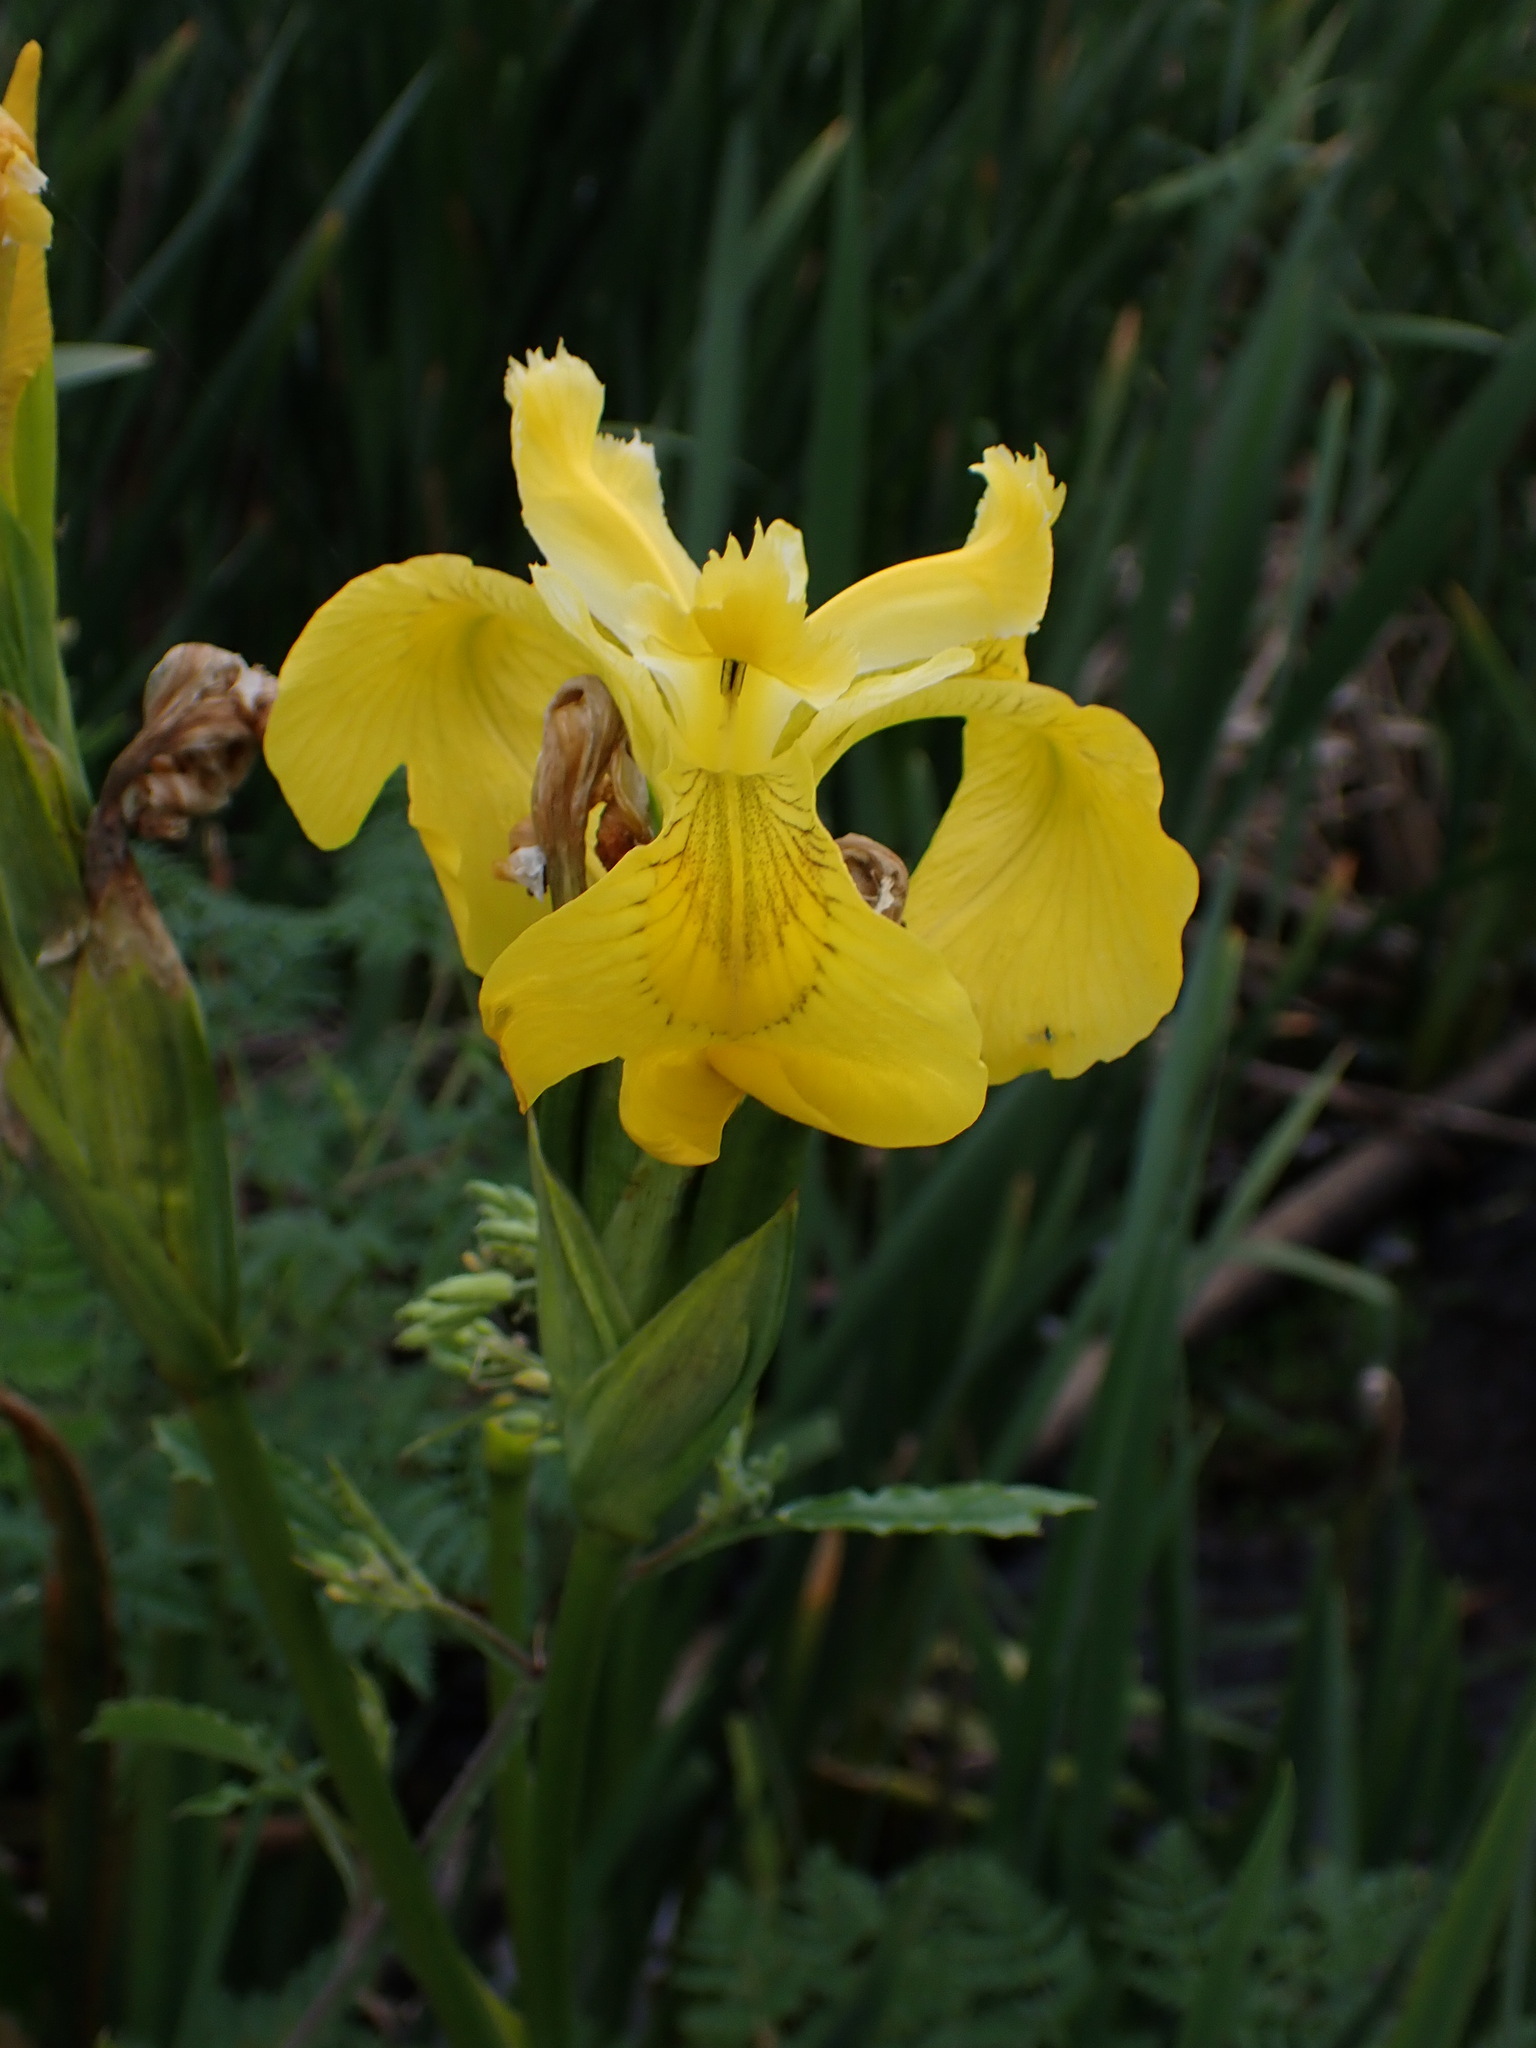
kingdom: Plantae
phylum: Tracheophyta
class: Liliopsida
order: Asparagales
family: Iridaceae
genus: Iris
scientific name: Iris pseudacorus
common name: Yellow flag
